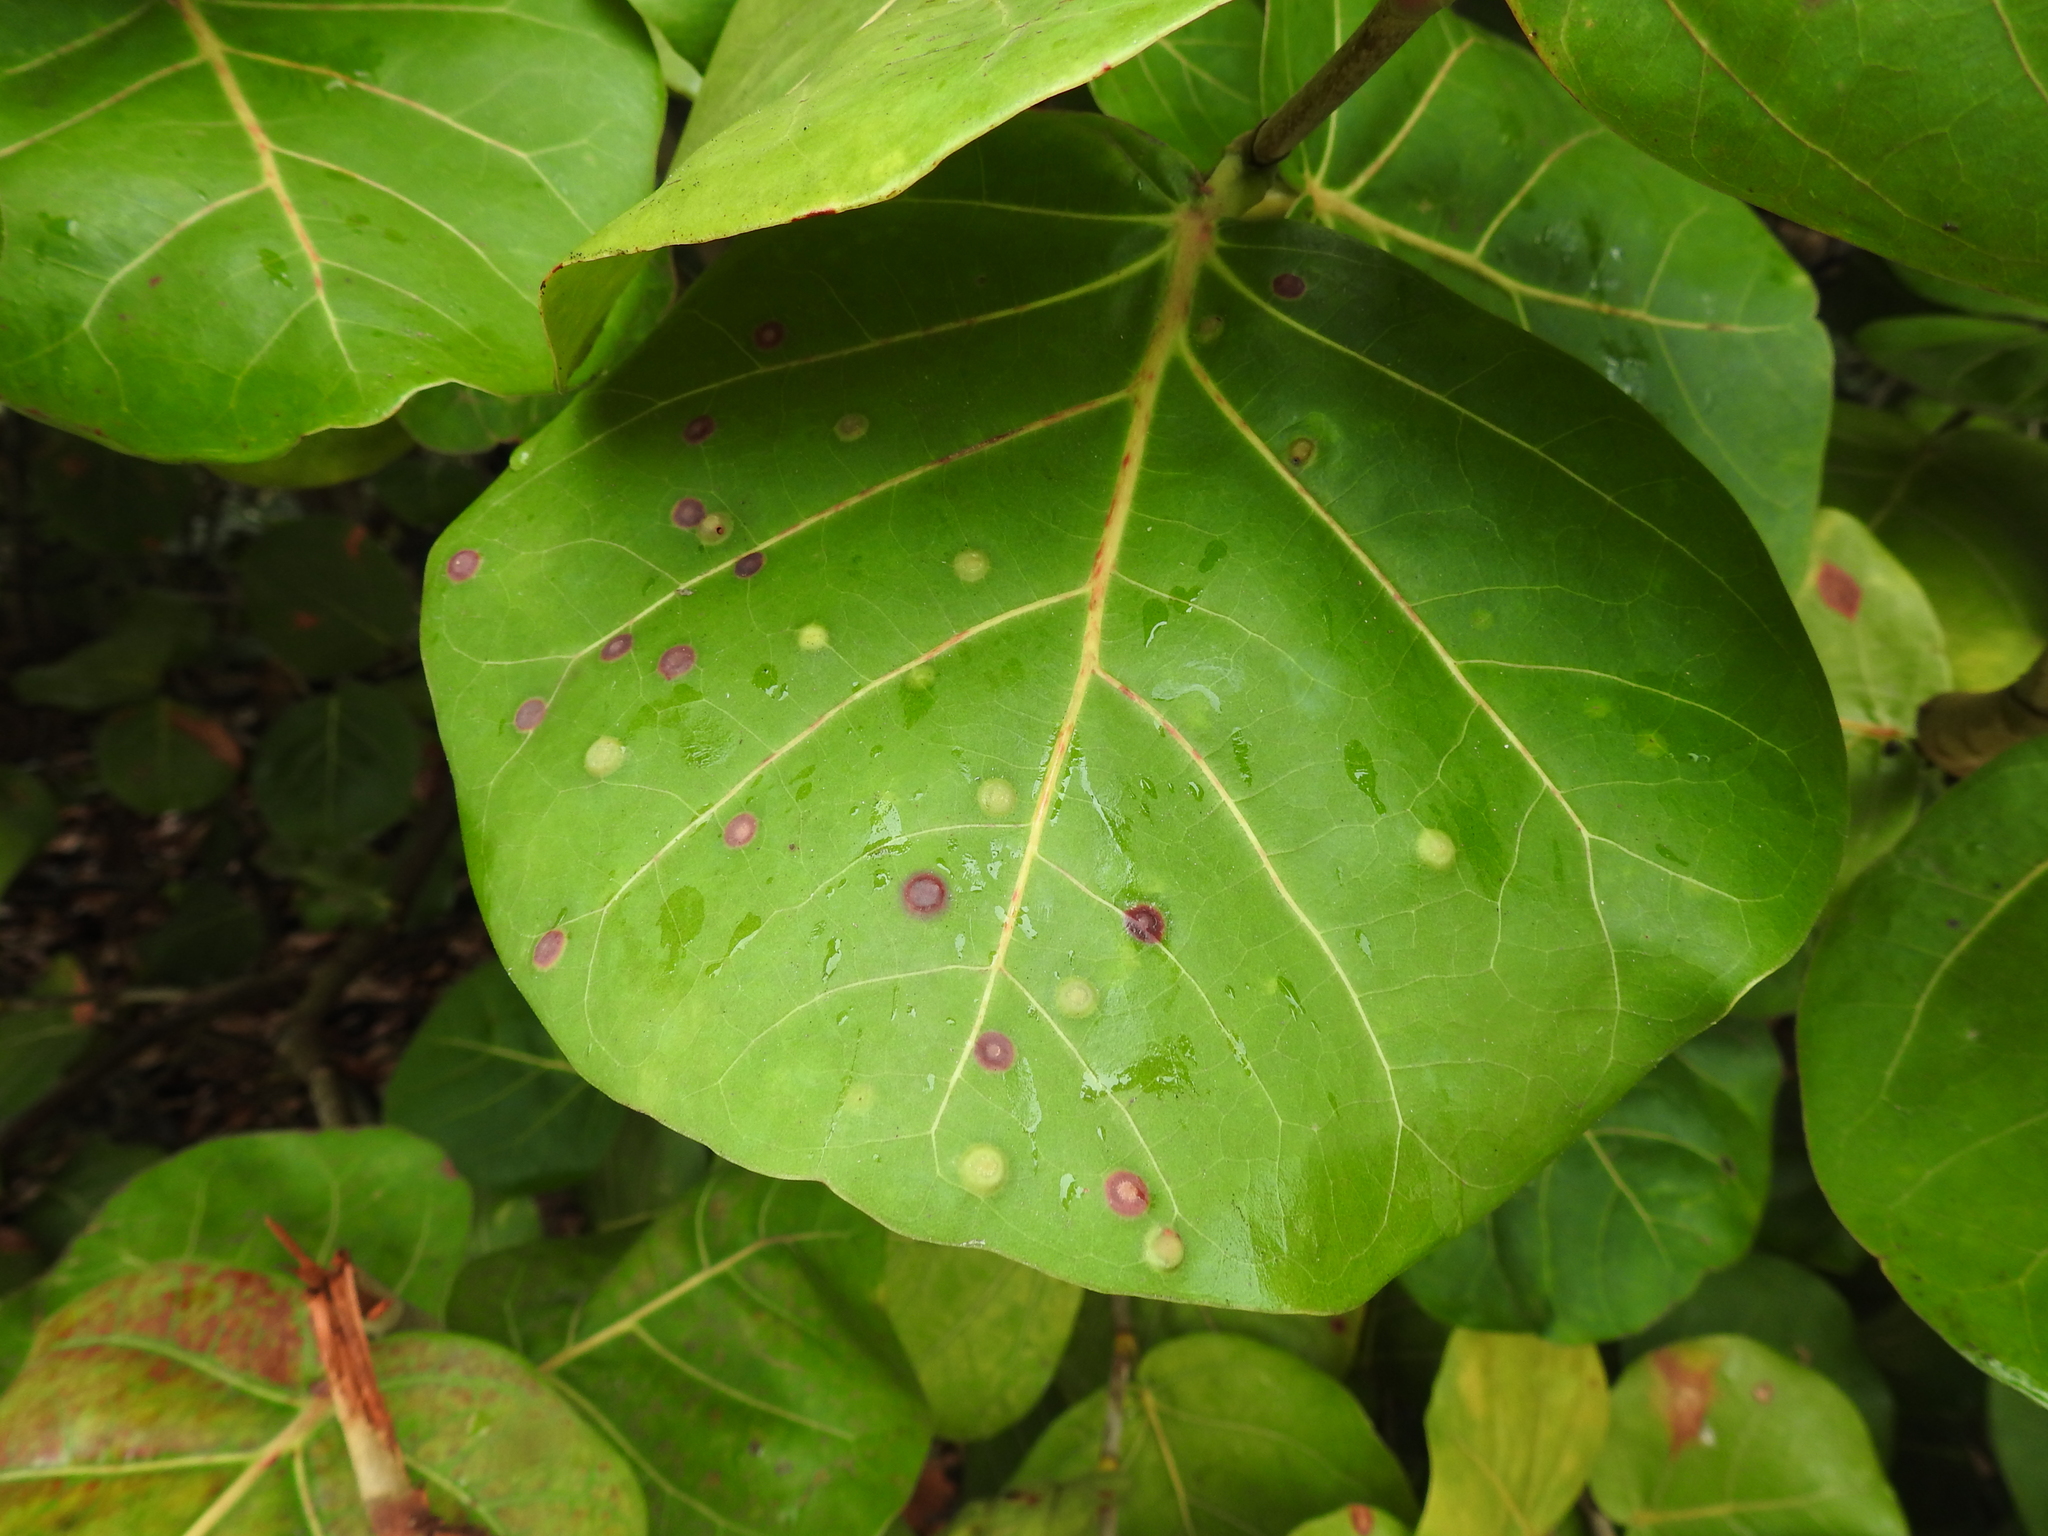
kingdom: Animalia
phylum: Arthropoda
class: Insecta
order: Diptera
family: Cecidomyiidae
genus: Ctenodactylomyia
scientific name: Ctenodactylomyia watsoni
